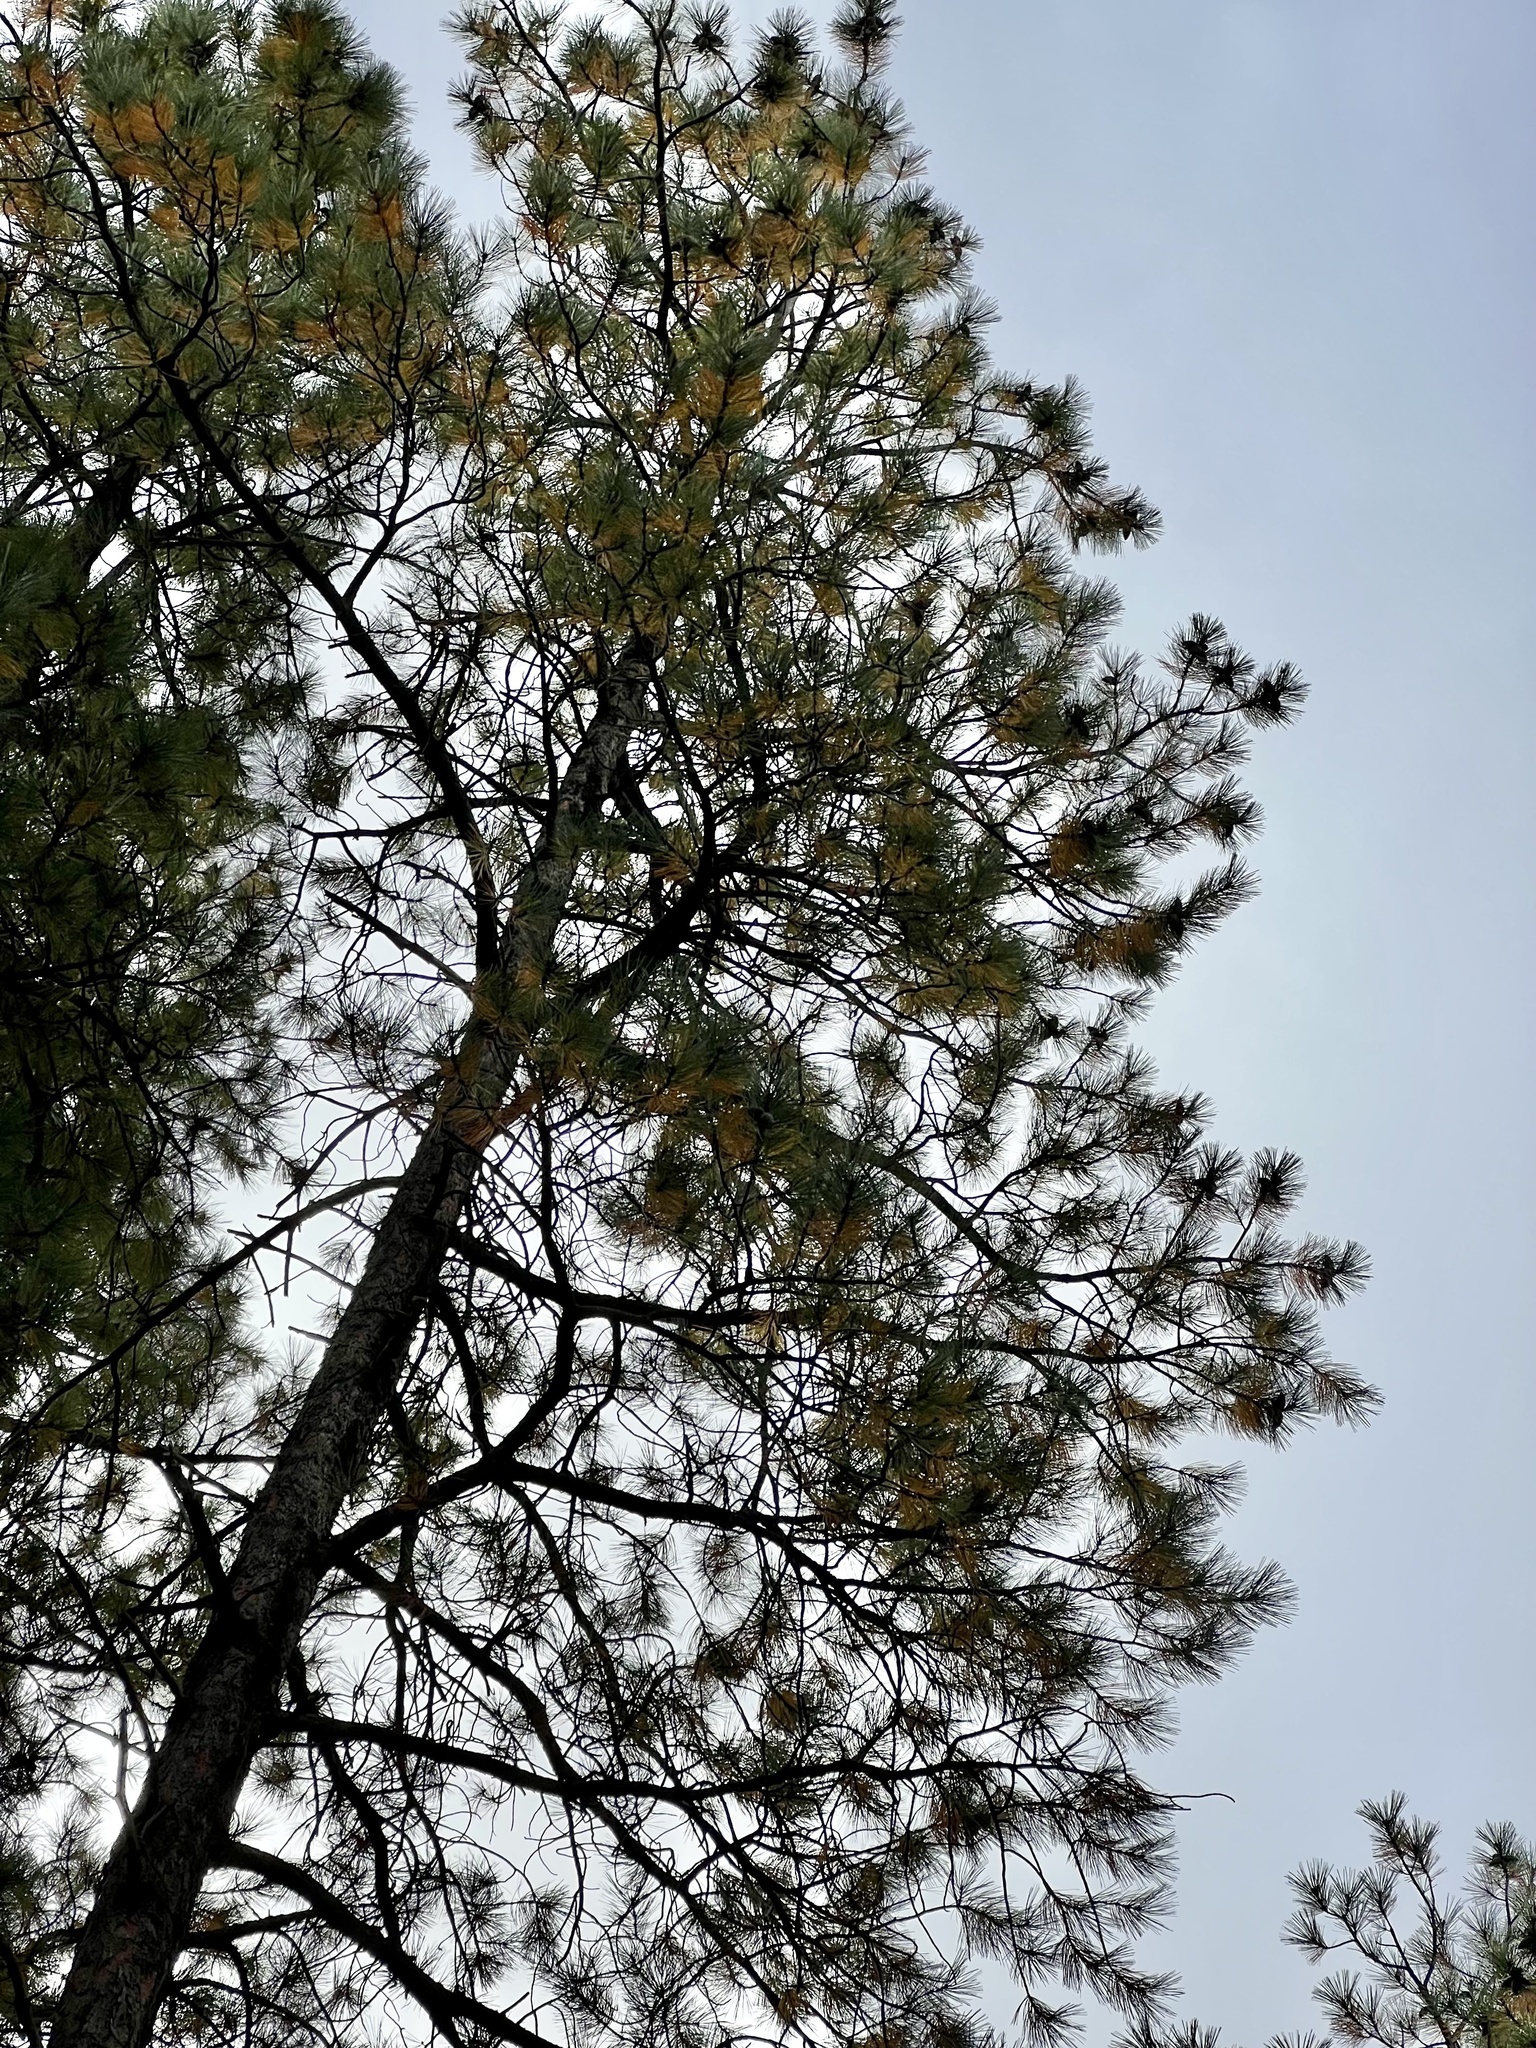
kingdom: Plantae
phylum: Tracheophyta
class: Pinopsida
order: Pinales
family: Pinaceae
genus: Pinus
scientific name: Pinus ponderosa
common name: Western yellow-pine
